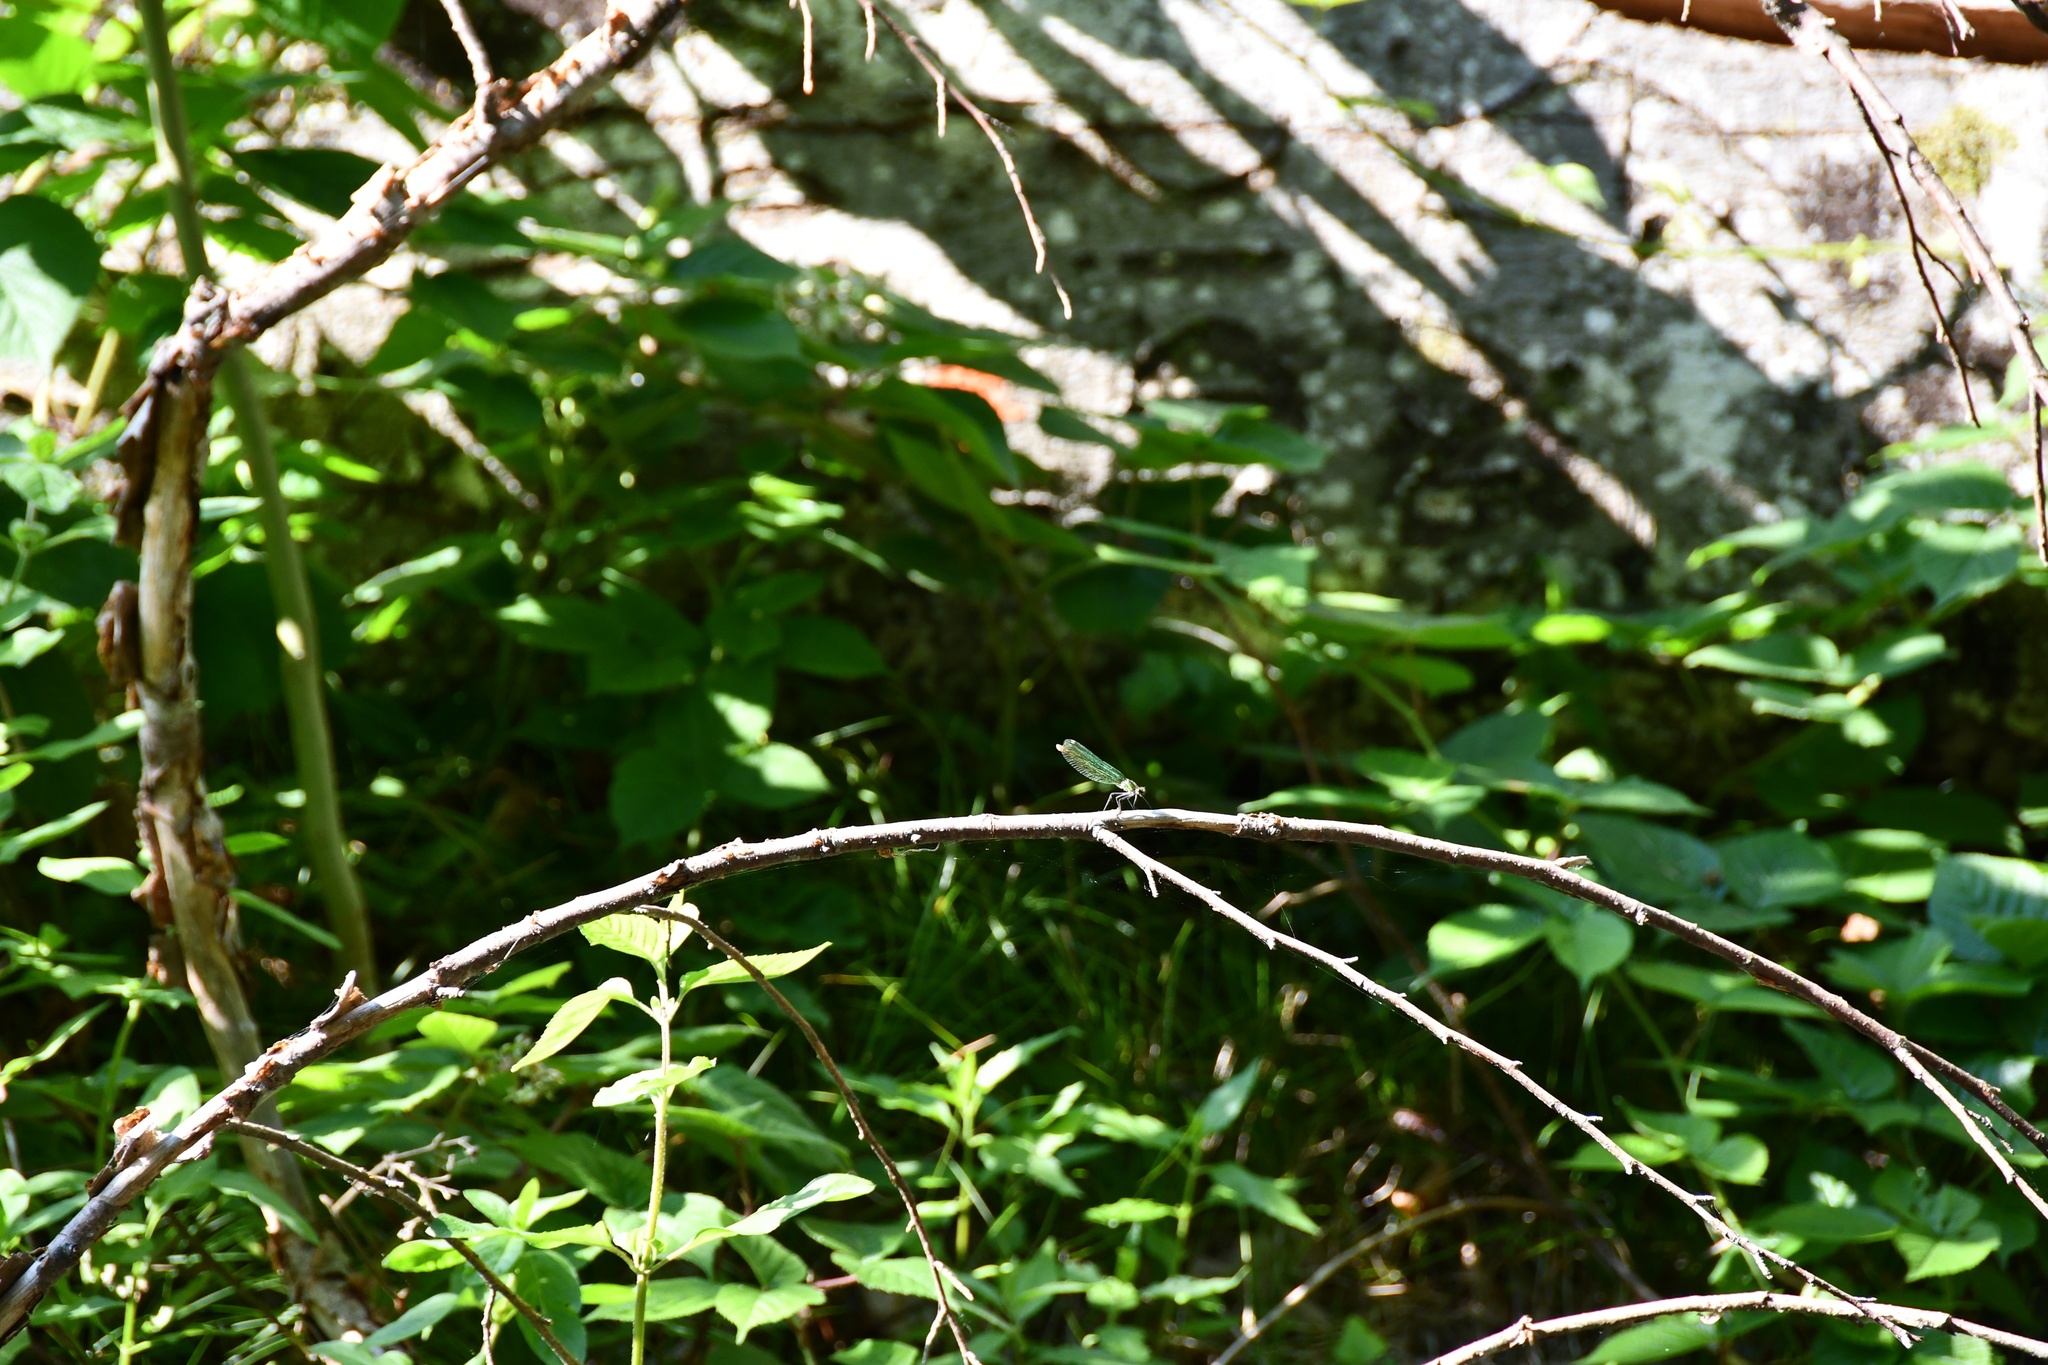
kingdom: Animalia
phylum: Arthropoda
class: Insecta
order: Odonata
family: Calopterygidae
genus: Calopteryx
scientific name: Calopteryx splendens
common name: Banded demoiselle
